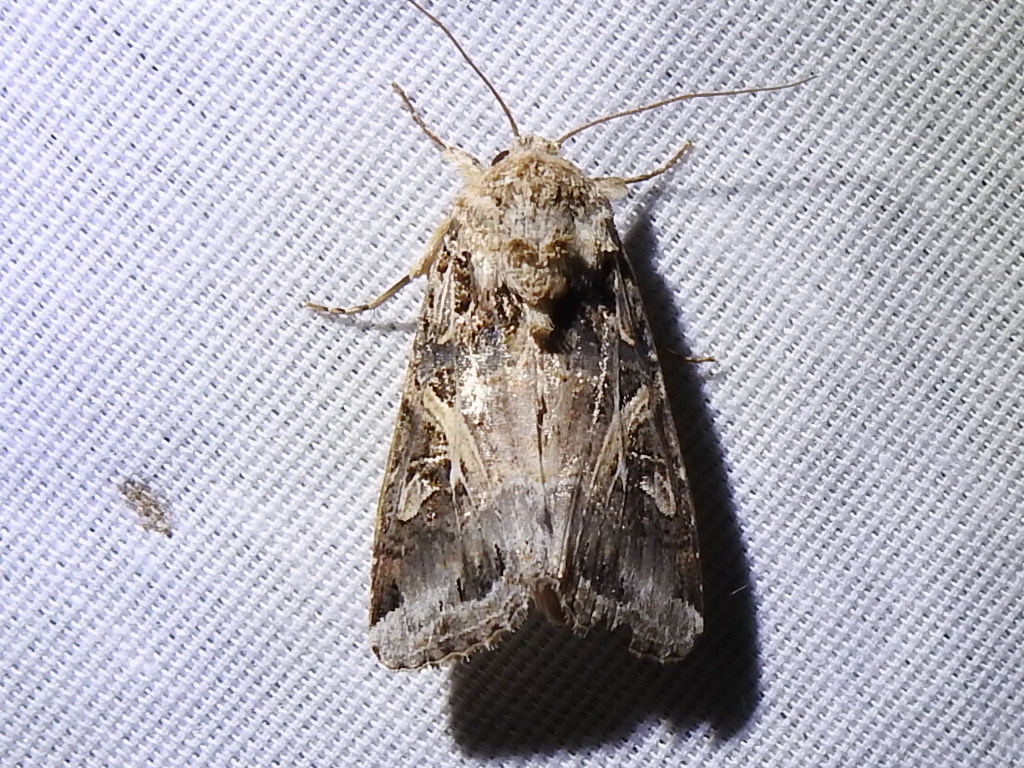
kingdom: Animalia
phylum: Arthropoda
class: Insecta
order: Lepidoptera
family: Noctuidae
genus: Spodoptera
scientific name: Spodoptera ornithogalli
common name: Yellow-striped armyworm
